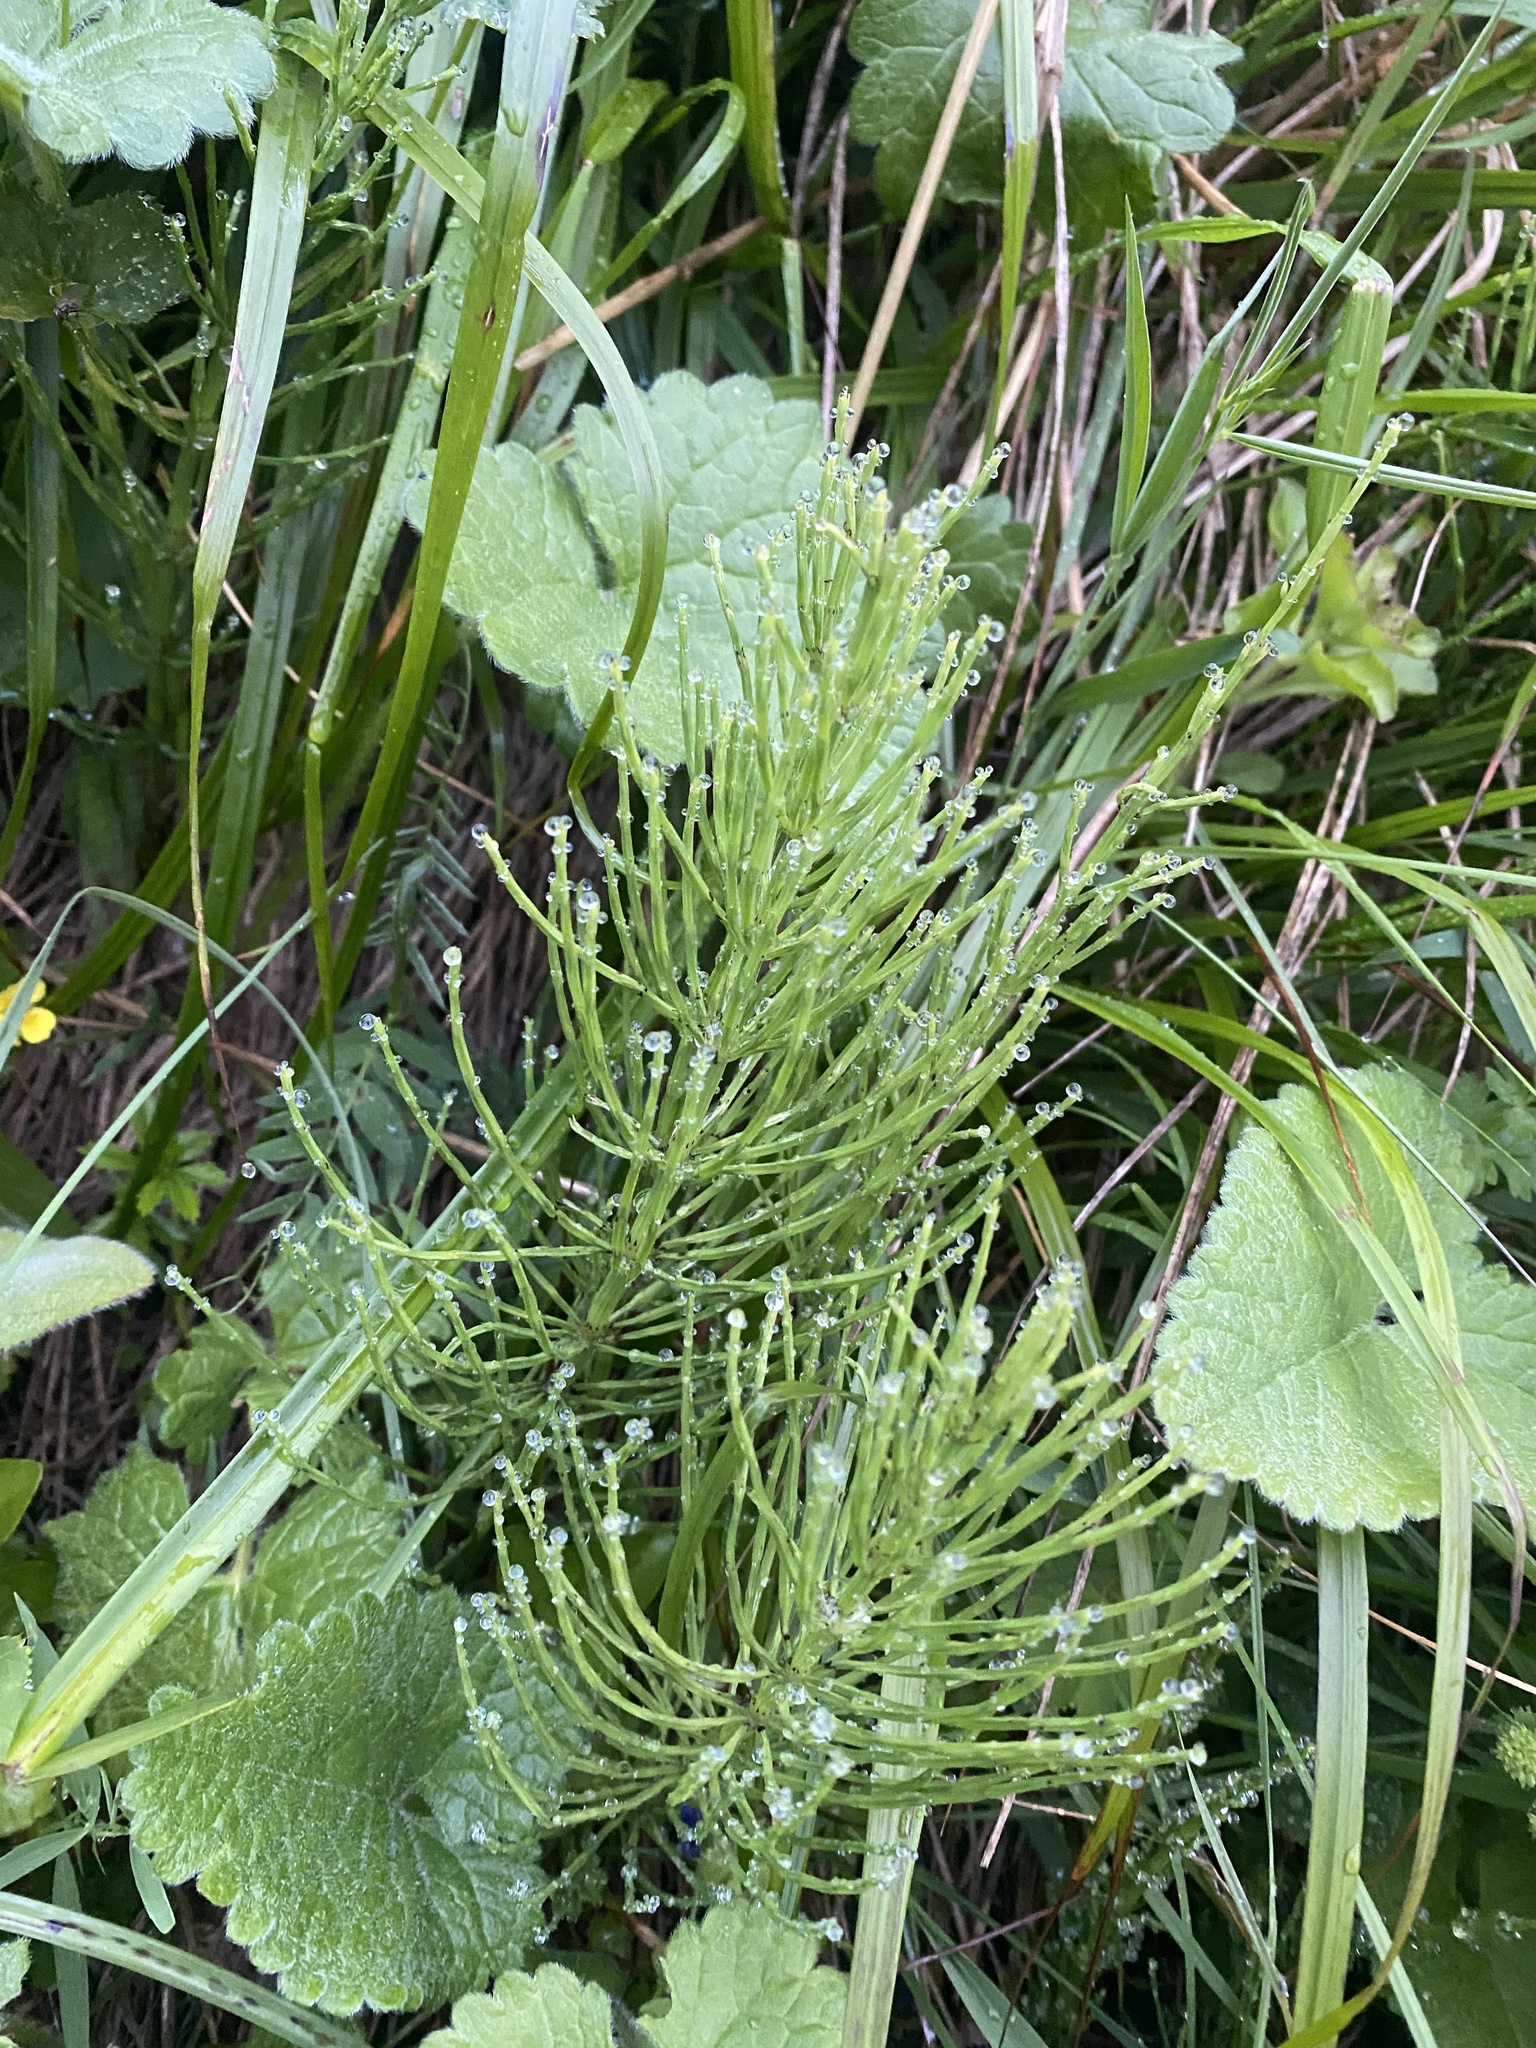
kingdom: Plantae
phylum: Tracheophyta
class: Polypodiopsida
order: Equisetales
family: Equisetaceae
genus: Equisetum
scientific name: Equisetum arvense
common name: Field horsetail
